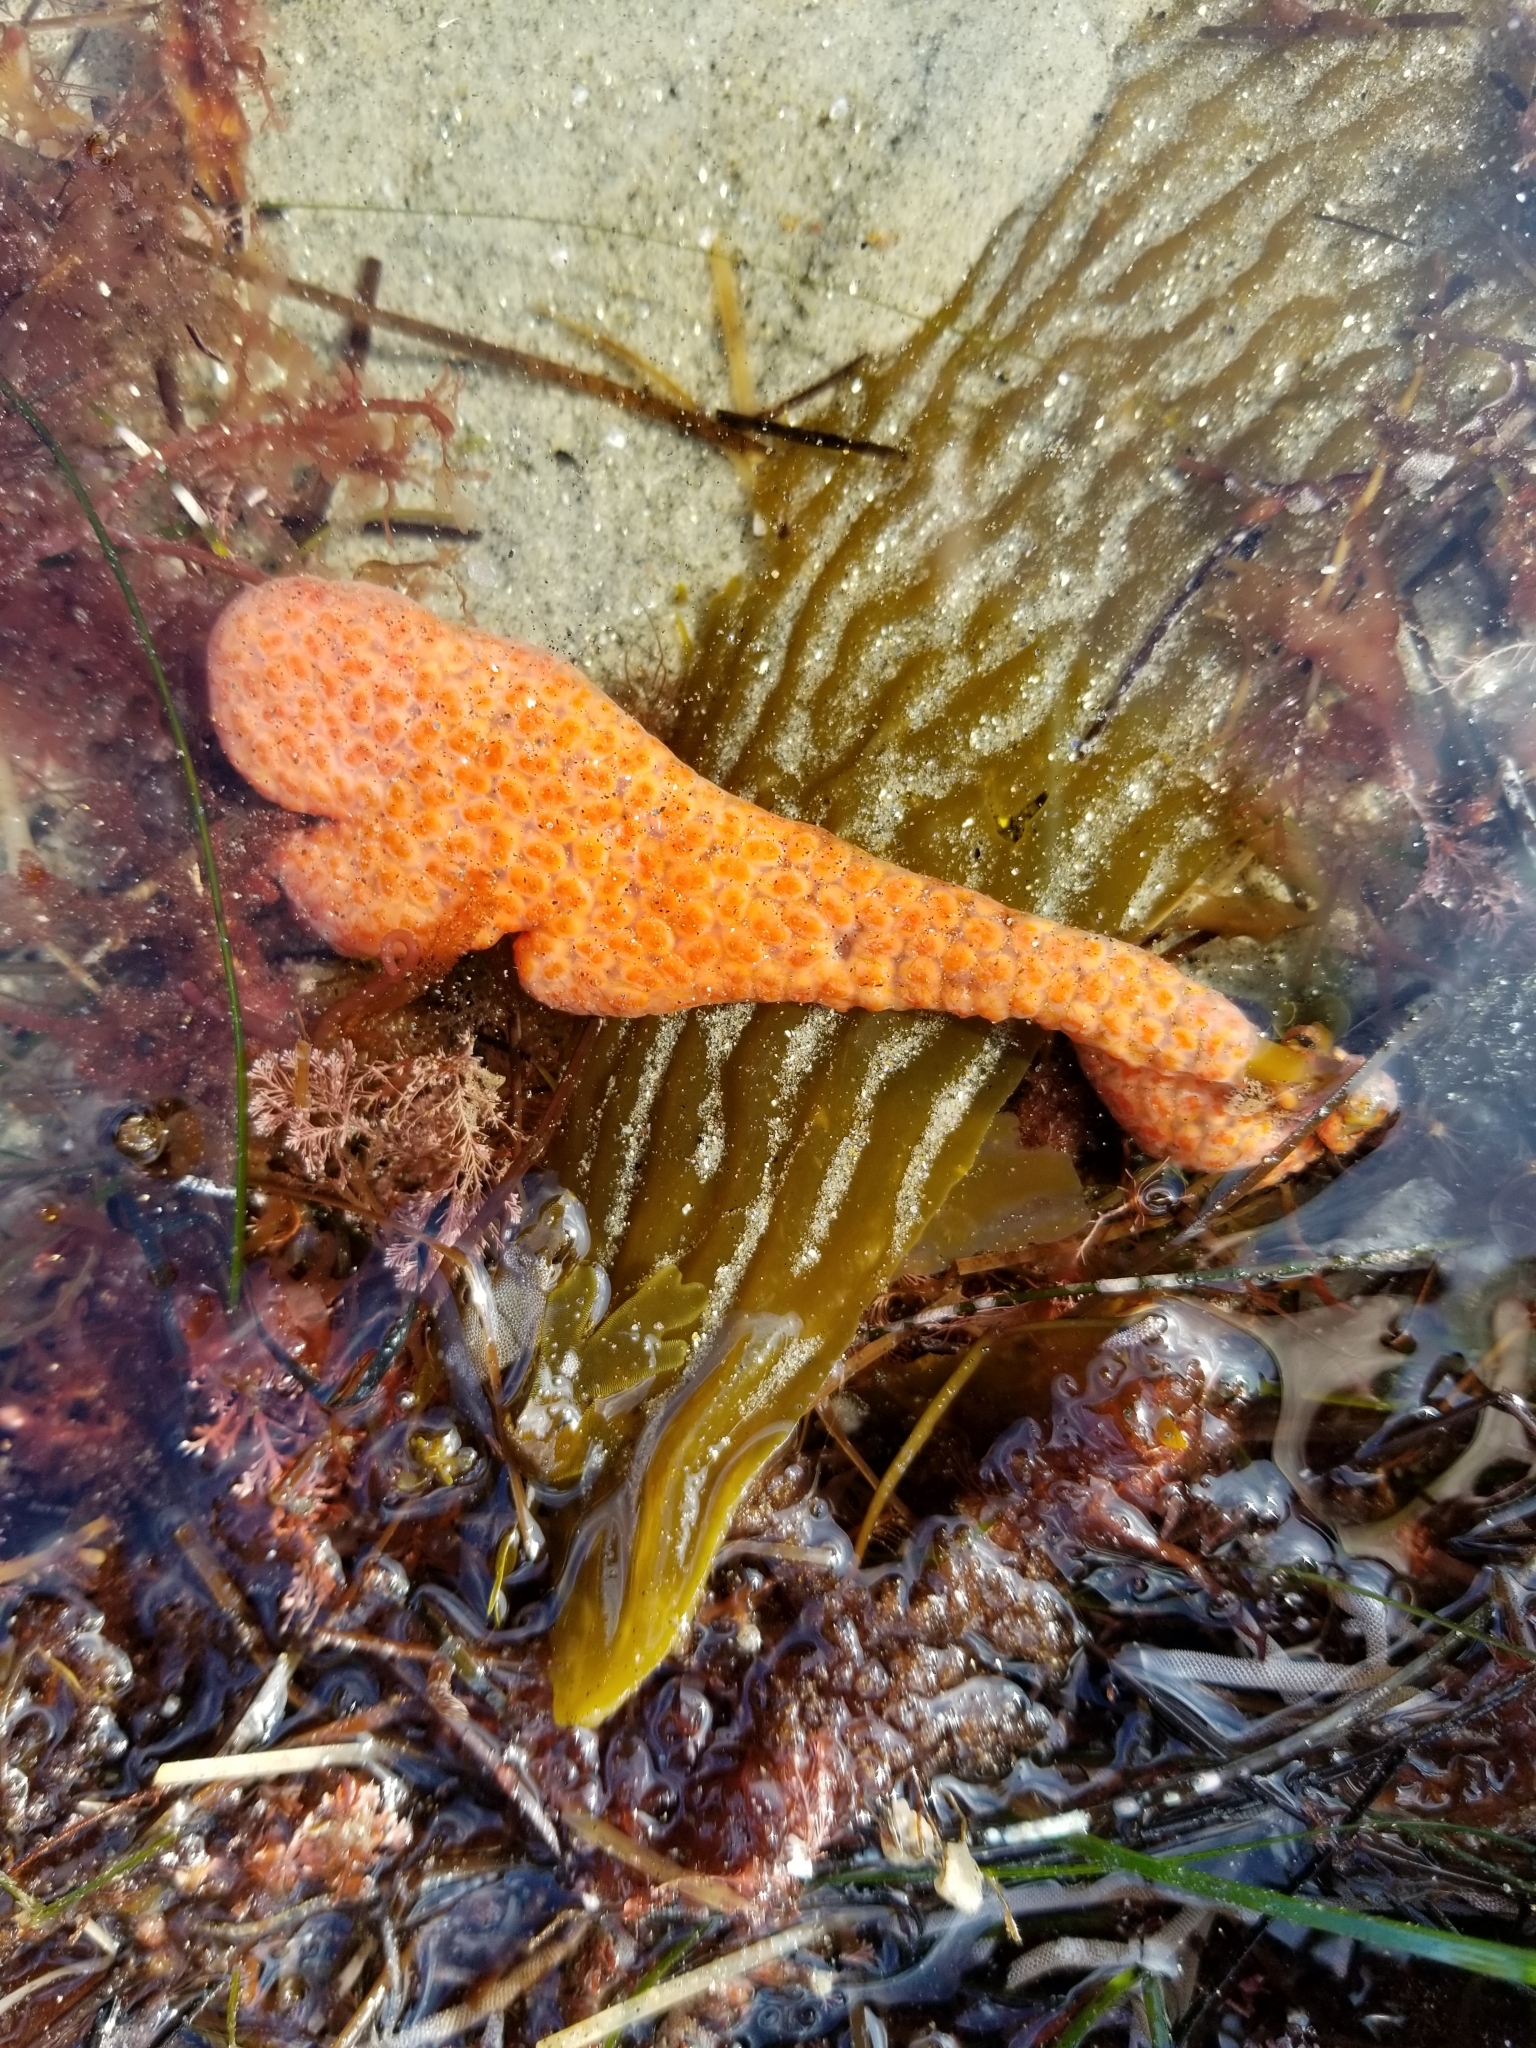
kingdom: Animalia
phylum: Chordata
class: Ascidiacea
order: Stolidobranchia
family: Styelidae
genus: Metandrocarpa
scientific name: Metandrocarpa dura
